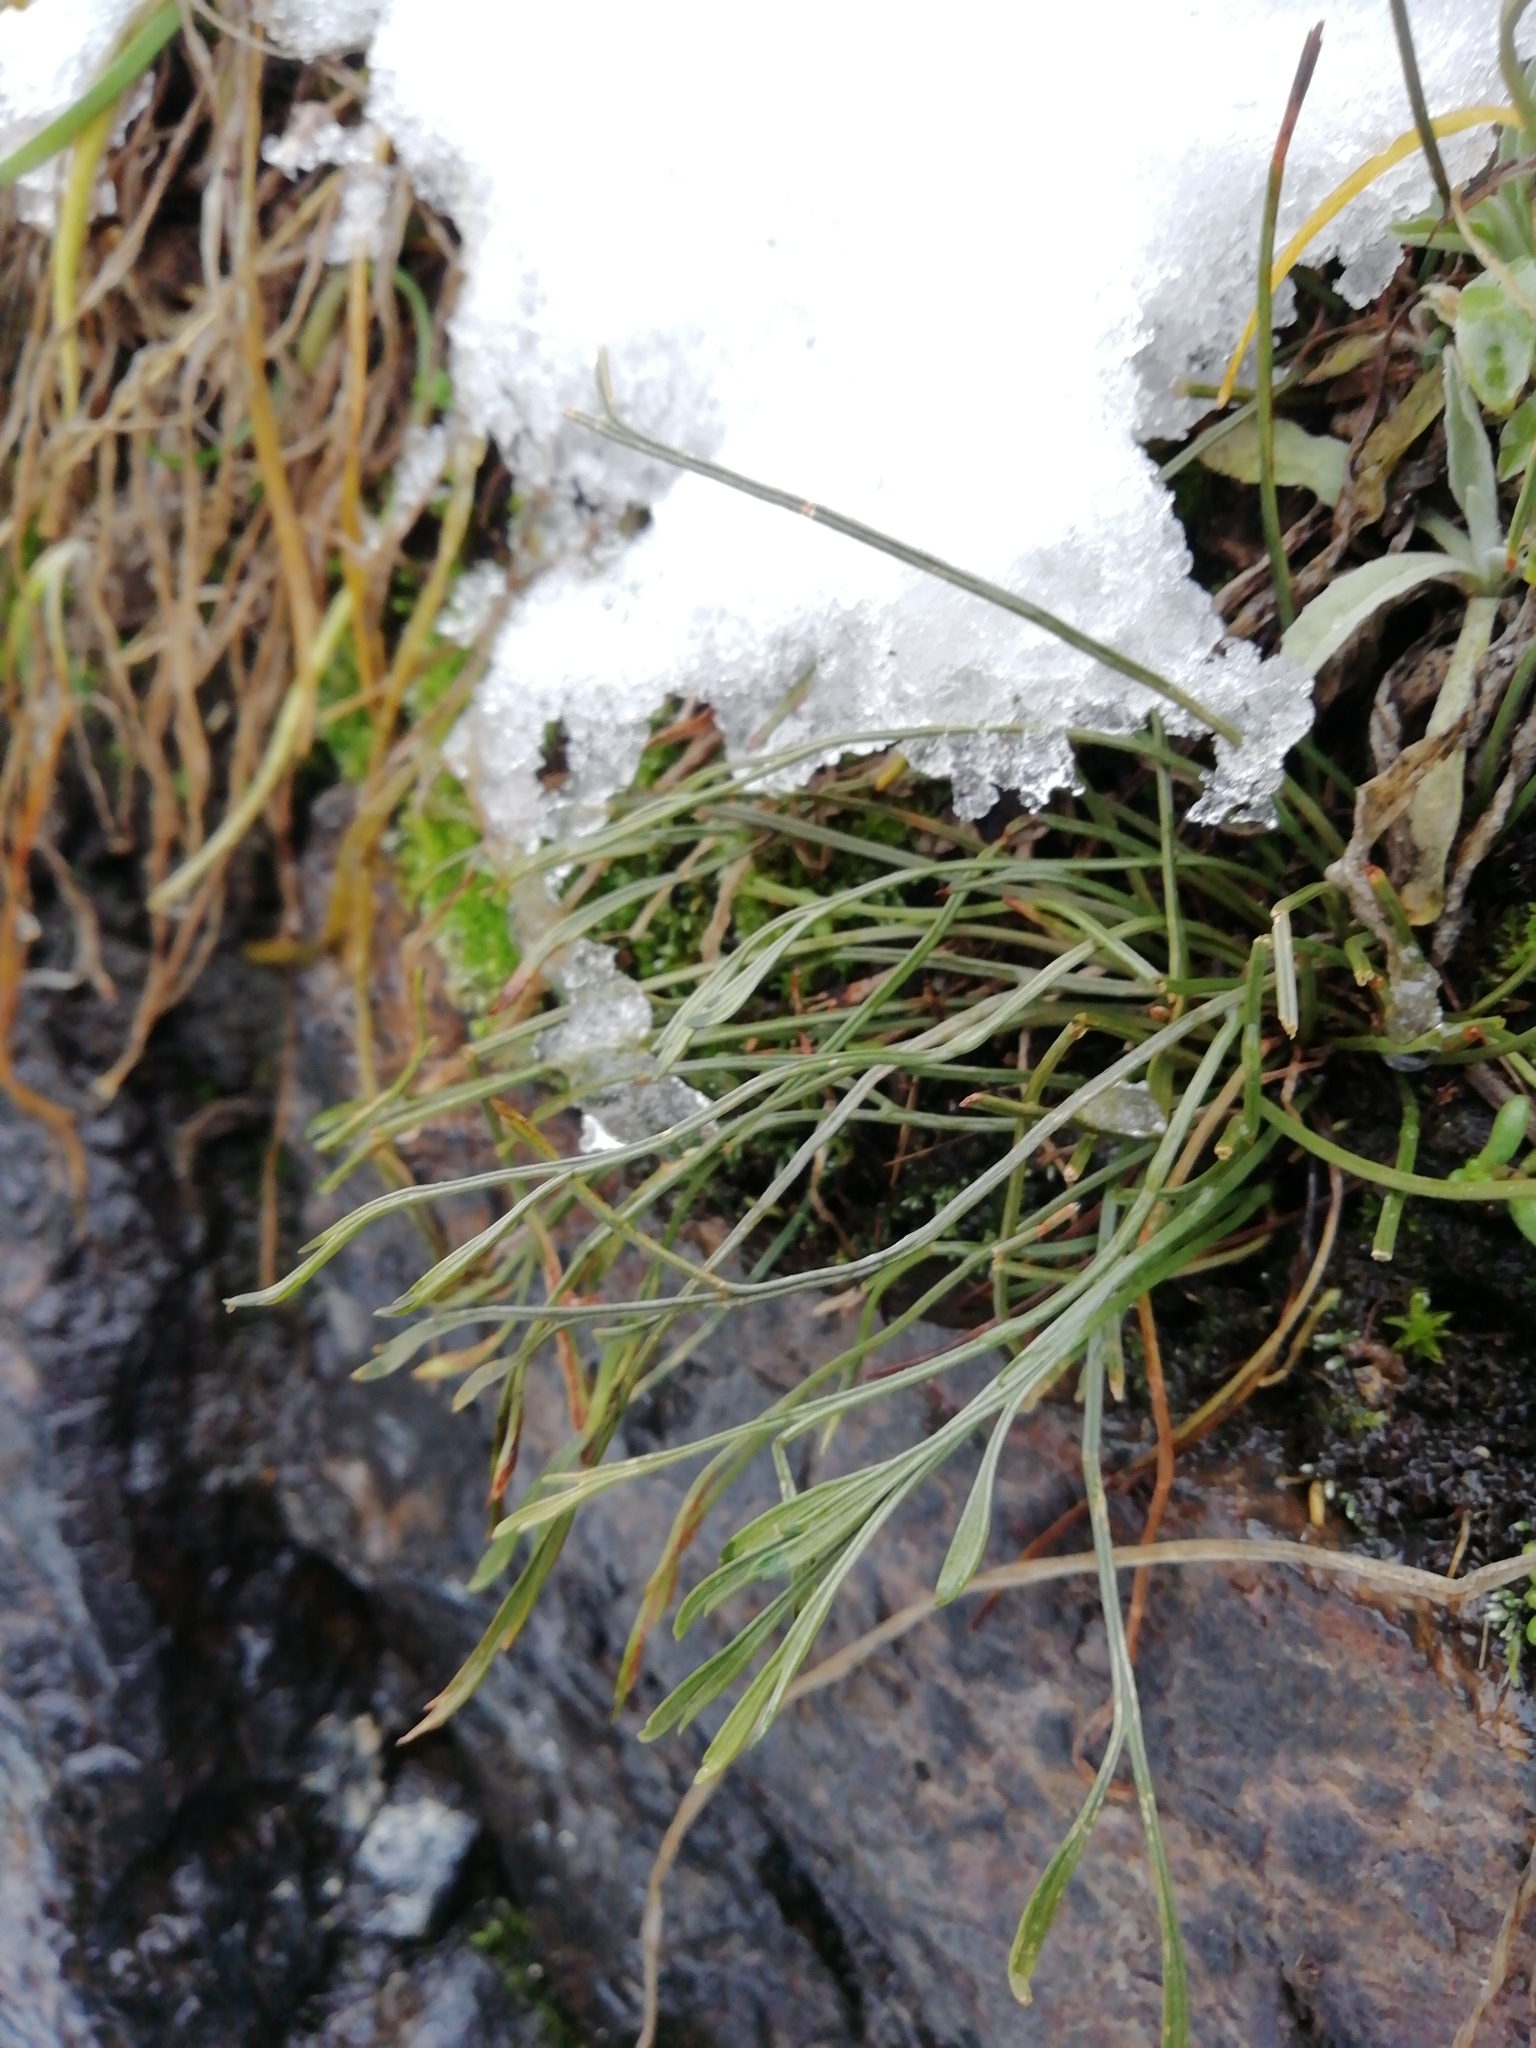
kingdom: Plantae
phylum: Tracheophyta
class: Polypodiopsida
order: Polypodiales
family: Aspleniaceae
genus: Asplenium
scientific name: Asplenium septentrionale
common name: Forked spleenwort
